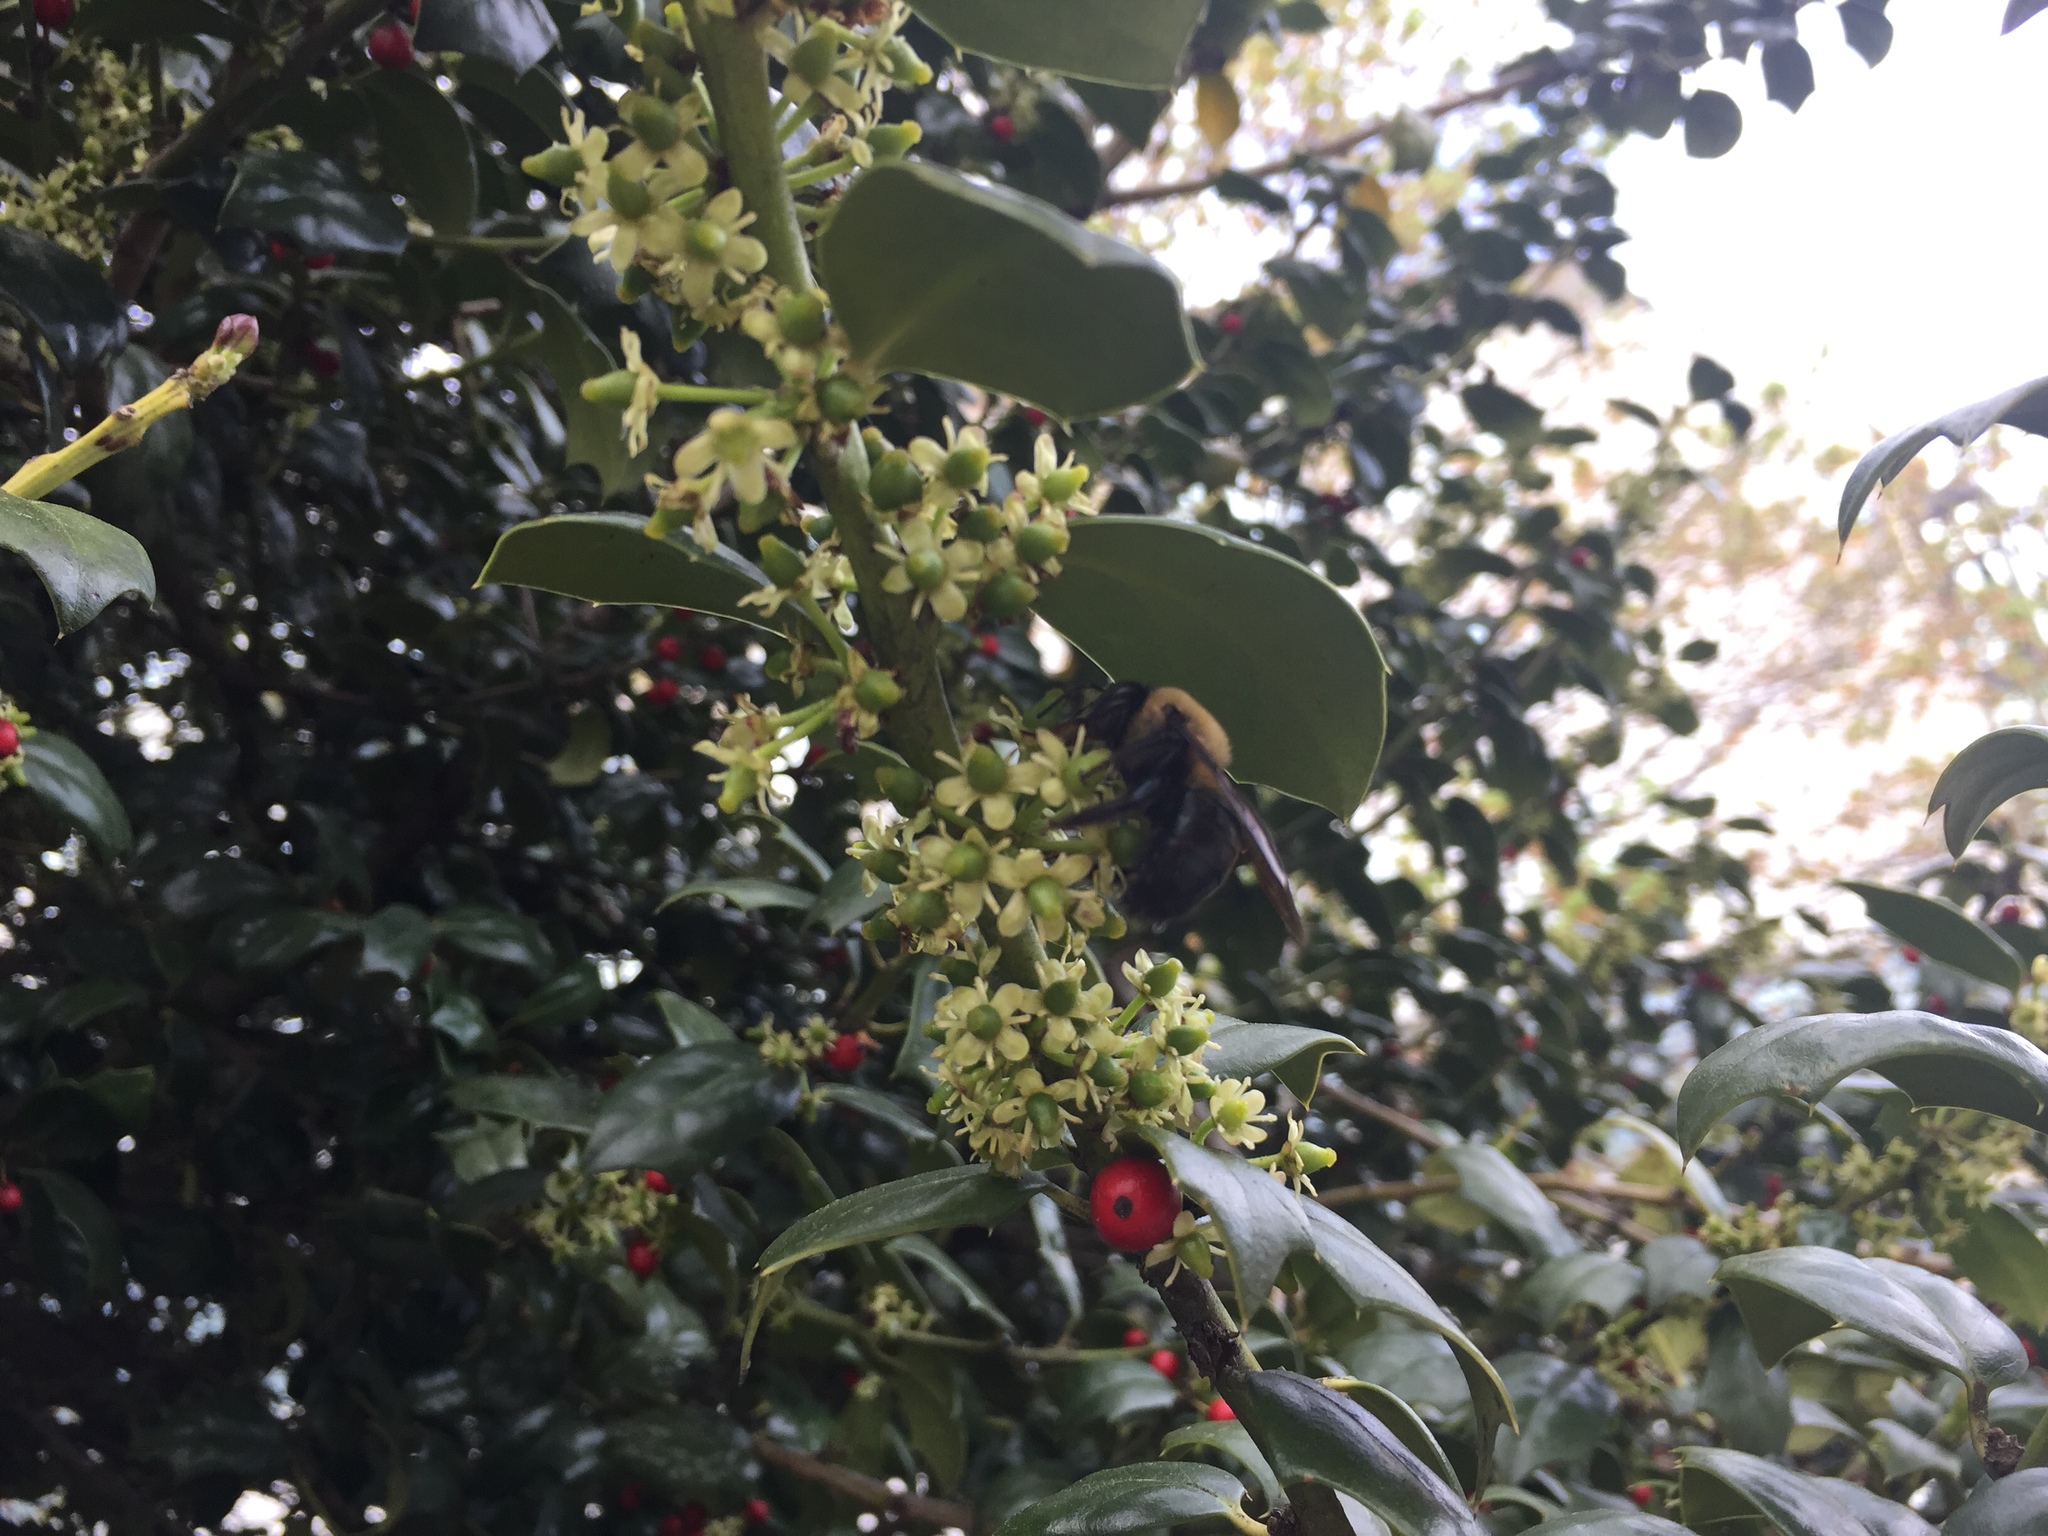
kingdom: Animalia
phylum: Arthropoda
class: Insecta
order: Hymenoptera
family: Apidae
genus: Xylocopa
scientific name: Xylocopa virginica
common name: Carpenter bee
